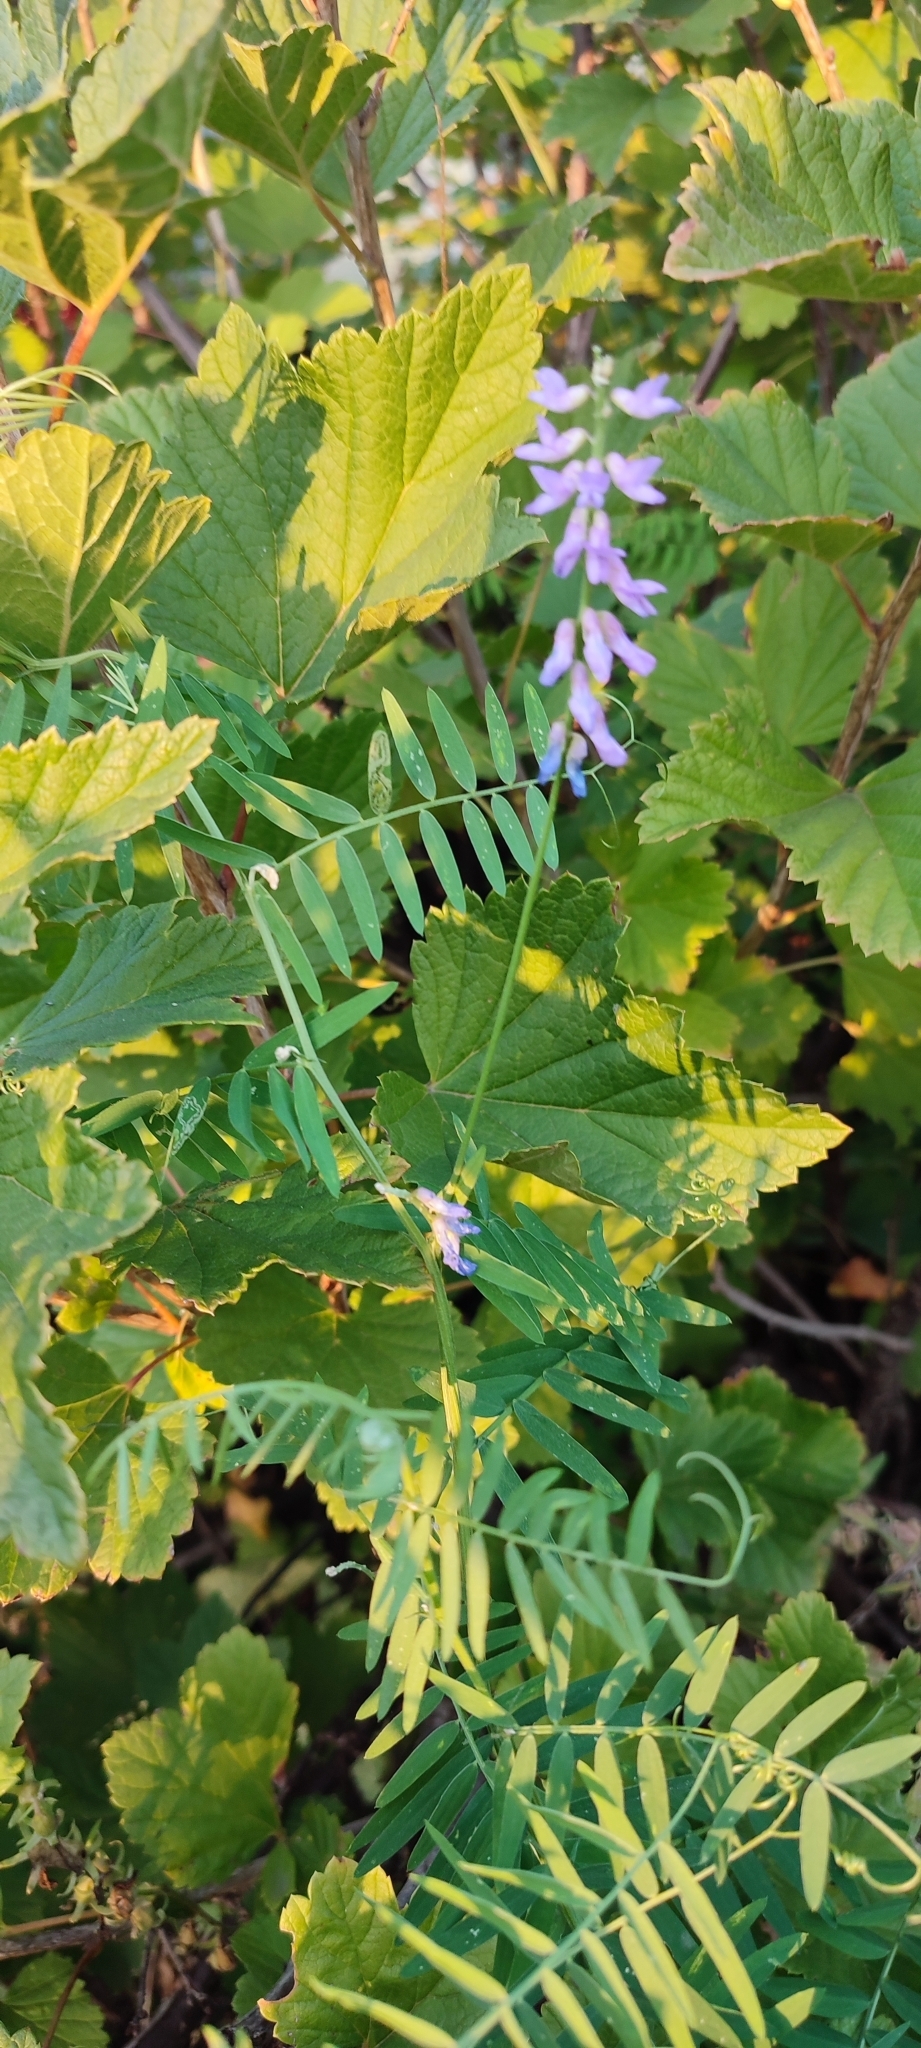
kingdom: Plantae
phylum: Tracheophyta
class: Magnoliopsida
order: Fabales
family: Fabaceae
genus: Vicia
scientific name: Vicia cracca
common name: Bird vetch
